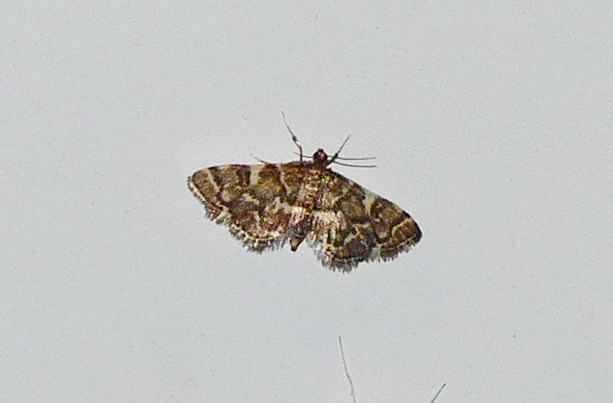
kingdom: Animalia
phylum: Arthropoda
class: Insecta
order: Lepidoptera
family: Crambidae
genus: Anageshna
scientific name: Anageshna primordialis
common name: Yellow-spotted webworm moth
